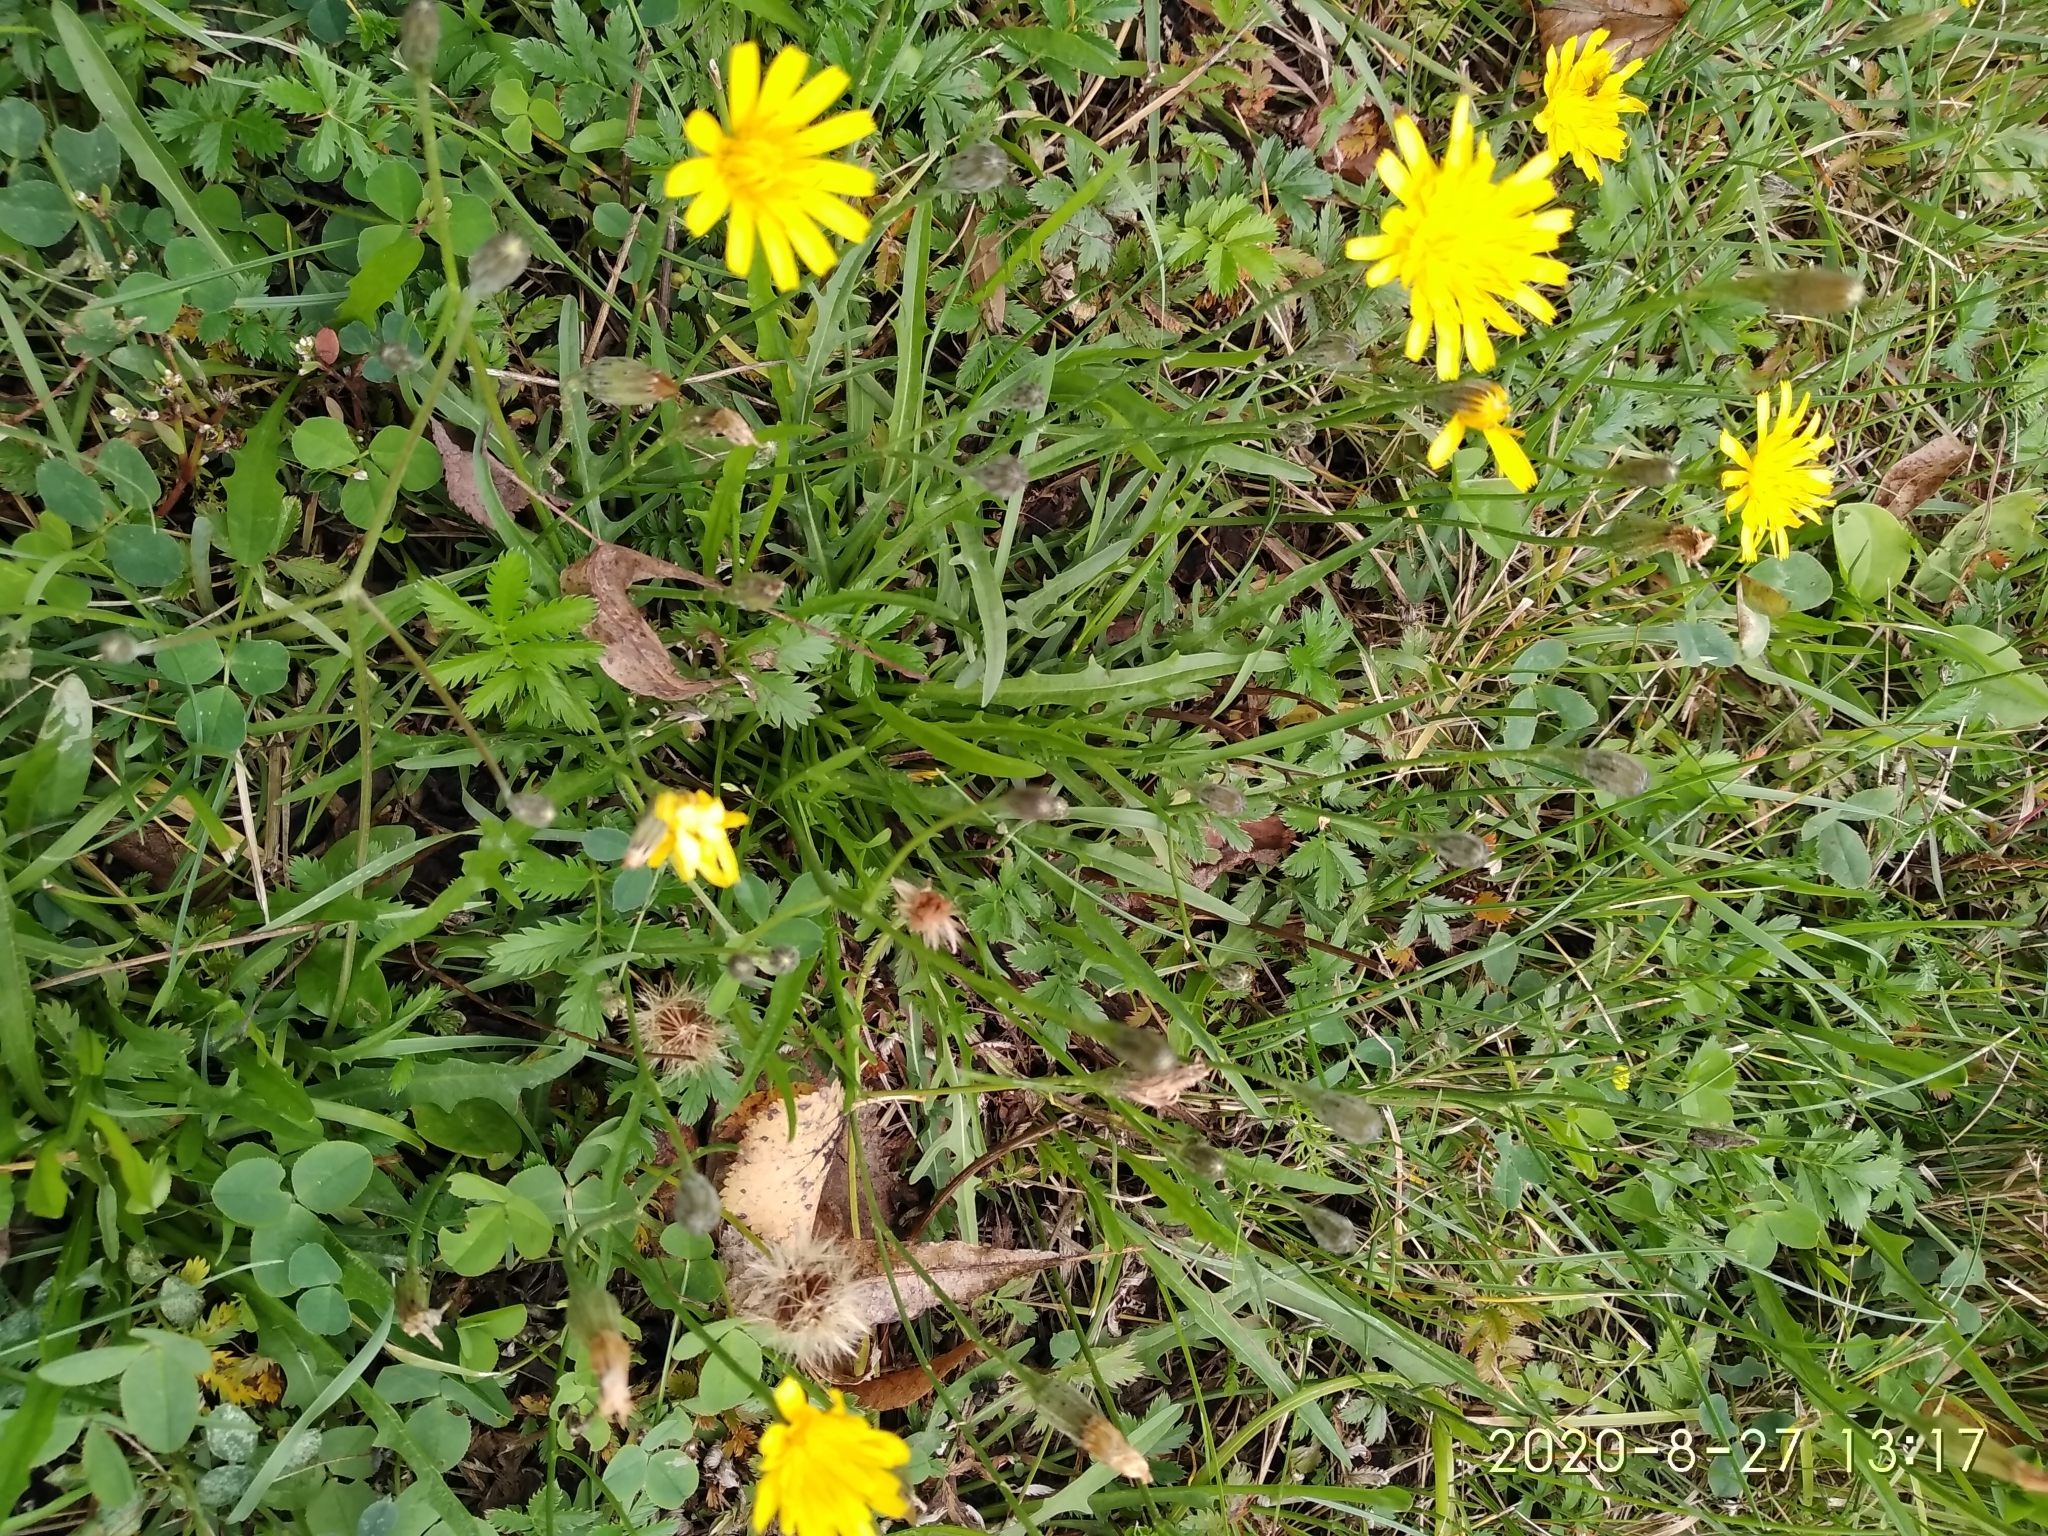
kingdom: Plantae
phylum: Tracheophyta
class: Magnoliopsida
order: Asterales
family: Asteraceae
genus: Scorzoneroides
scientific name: Scorzoneroides autumnalis
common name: Autumn hawkbit
